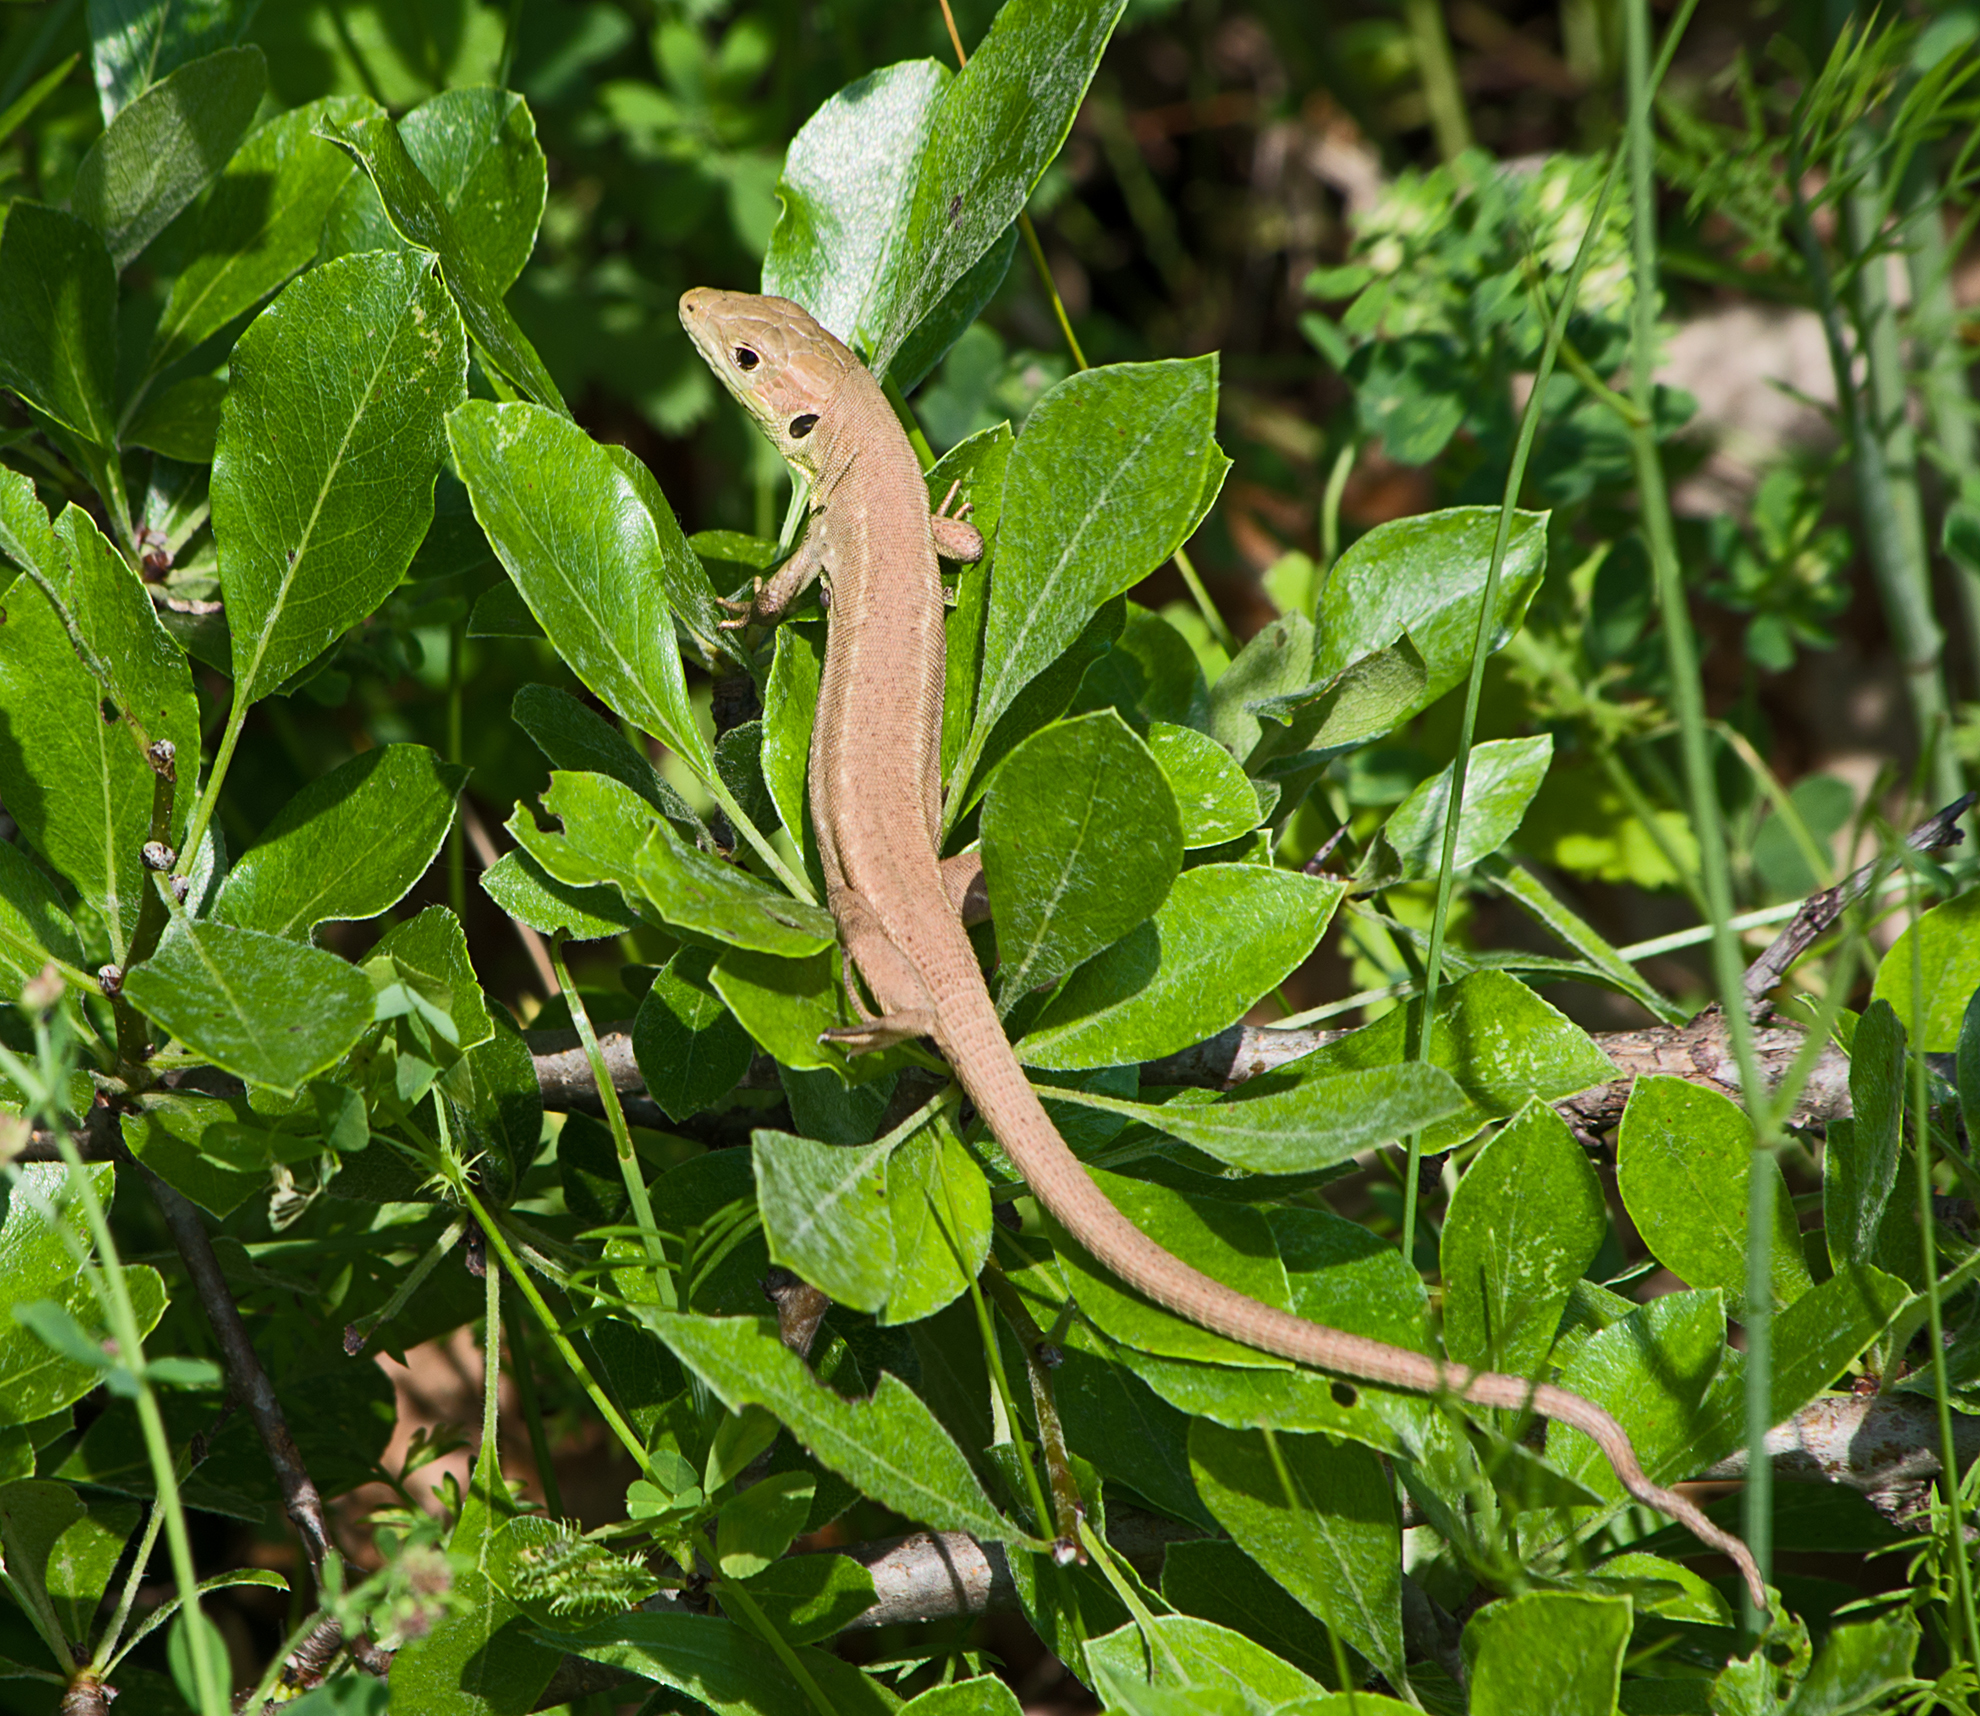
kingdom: Animalia
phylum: Chordata
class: Squamata
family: Lacertidae
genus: Lacerta
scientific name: Lacerta viridis
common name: European green lizard
